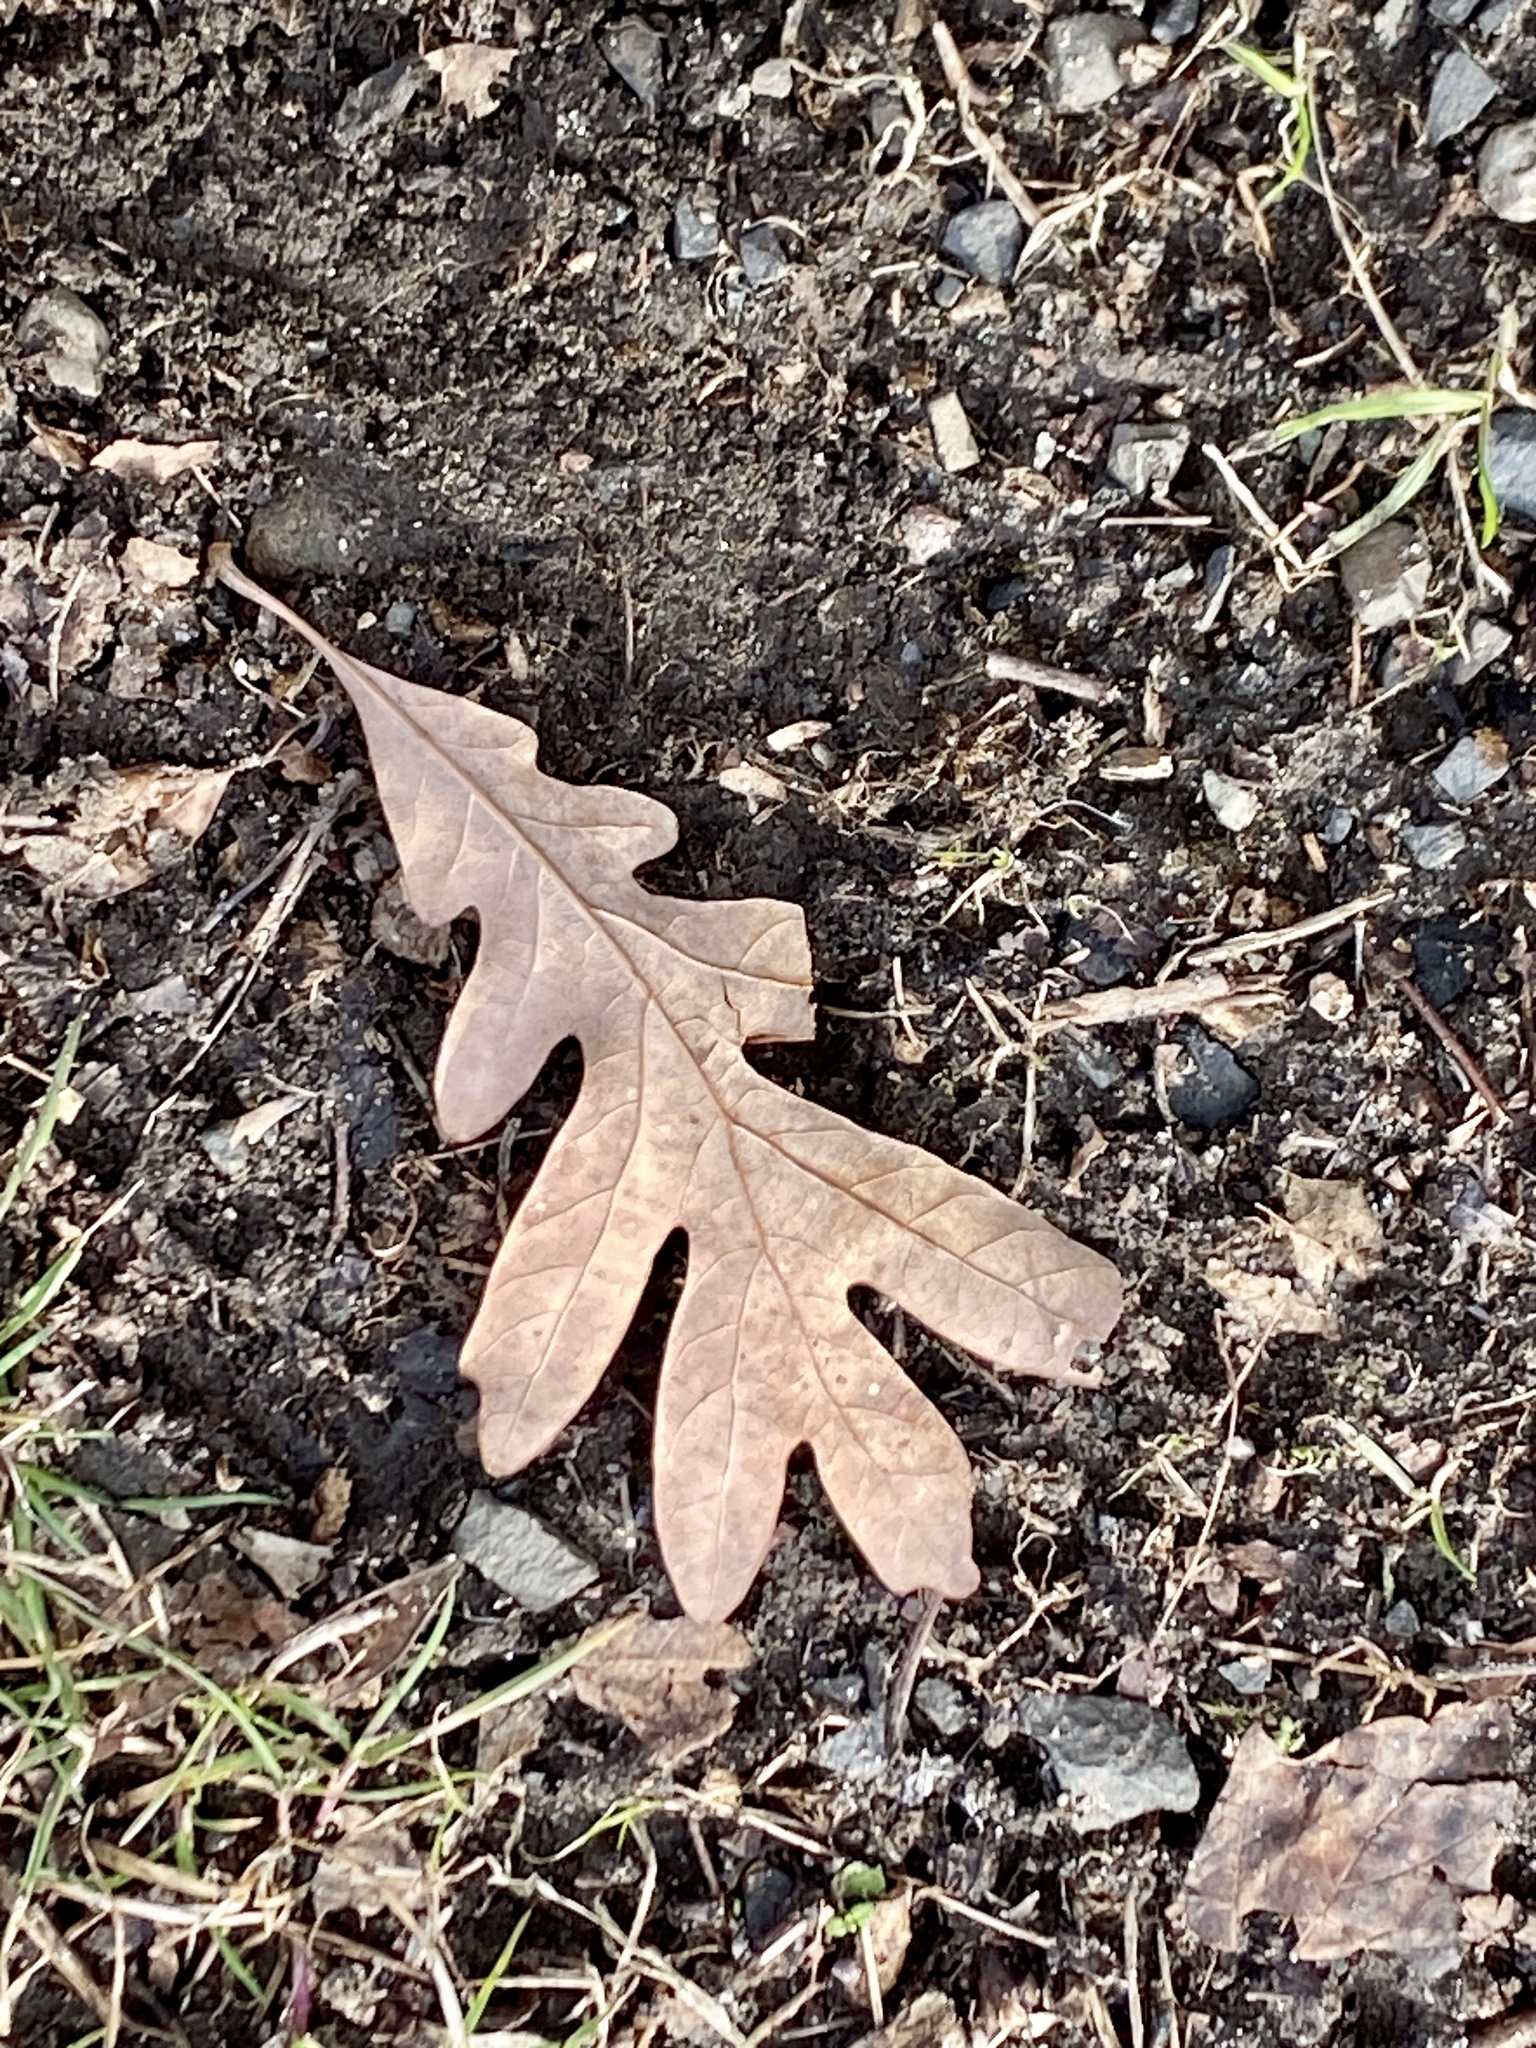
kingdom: Plantae
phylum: Tracheophyta
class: Magnoliopsida
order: Fagales
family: Fagaceae
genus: Quercus
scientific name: Quercus alba
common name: White oak
